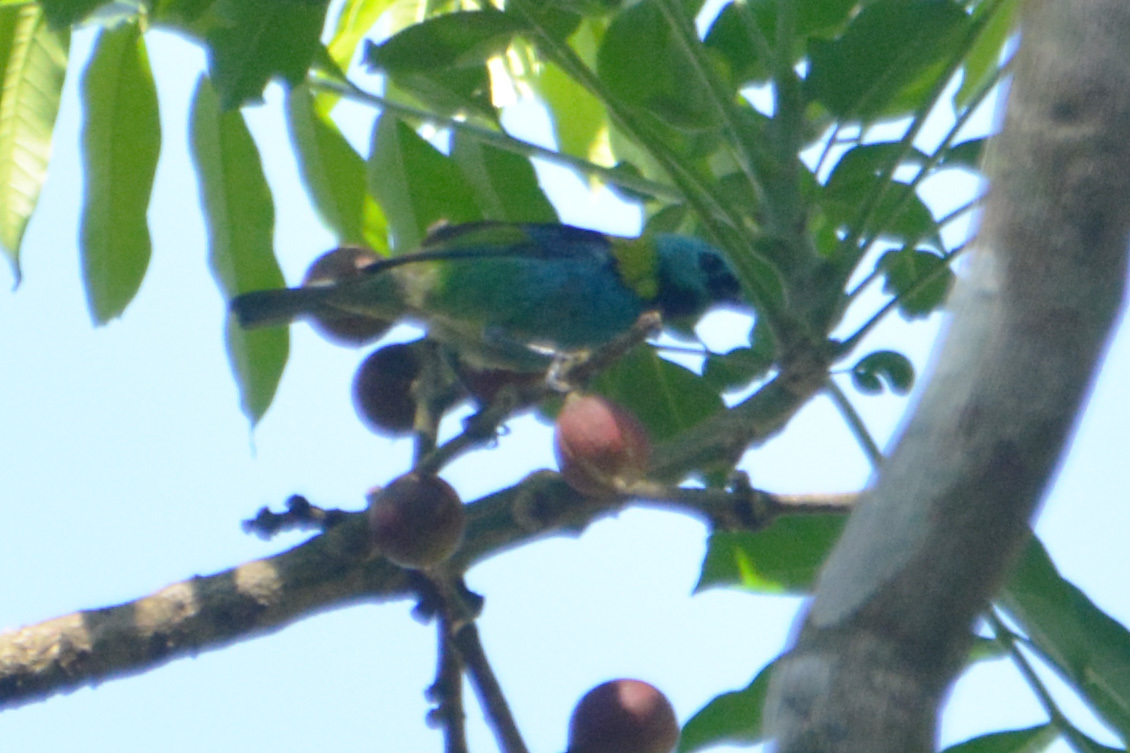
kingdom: Animalia
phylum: Chordata
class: Aves
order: Passeriformes
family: Thraupidae
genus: Tangara
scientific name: Tangara seledon
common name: Green-headed tanager
